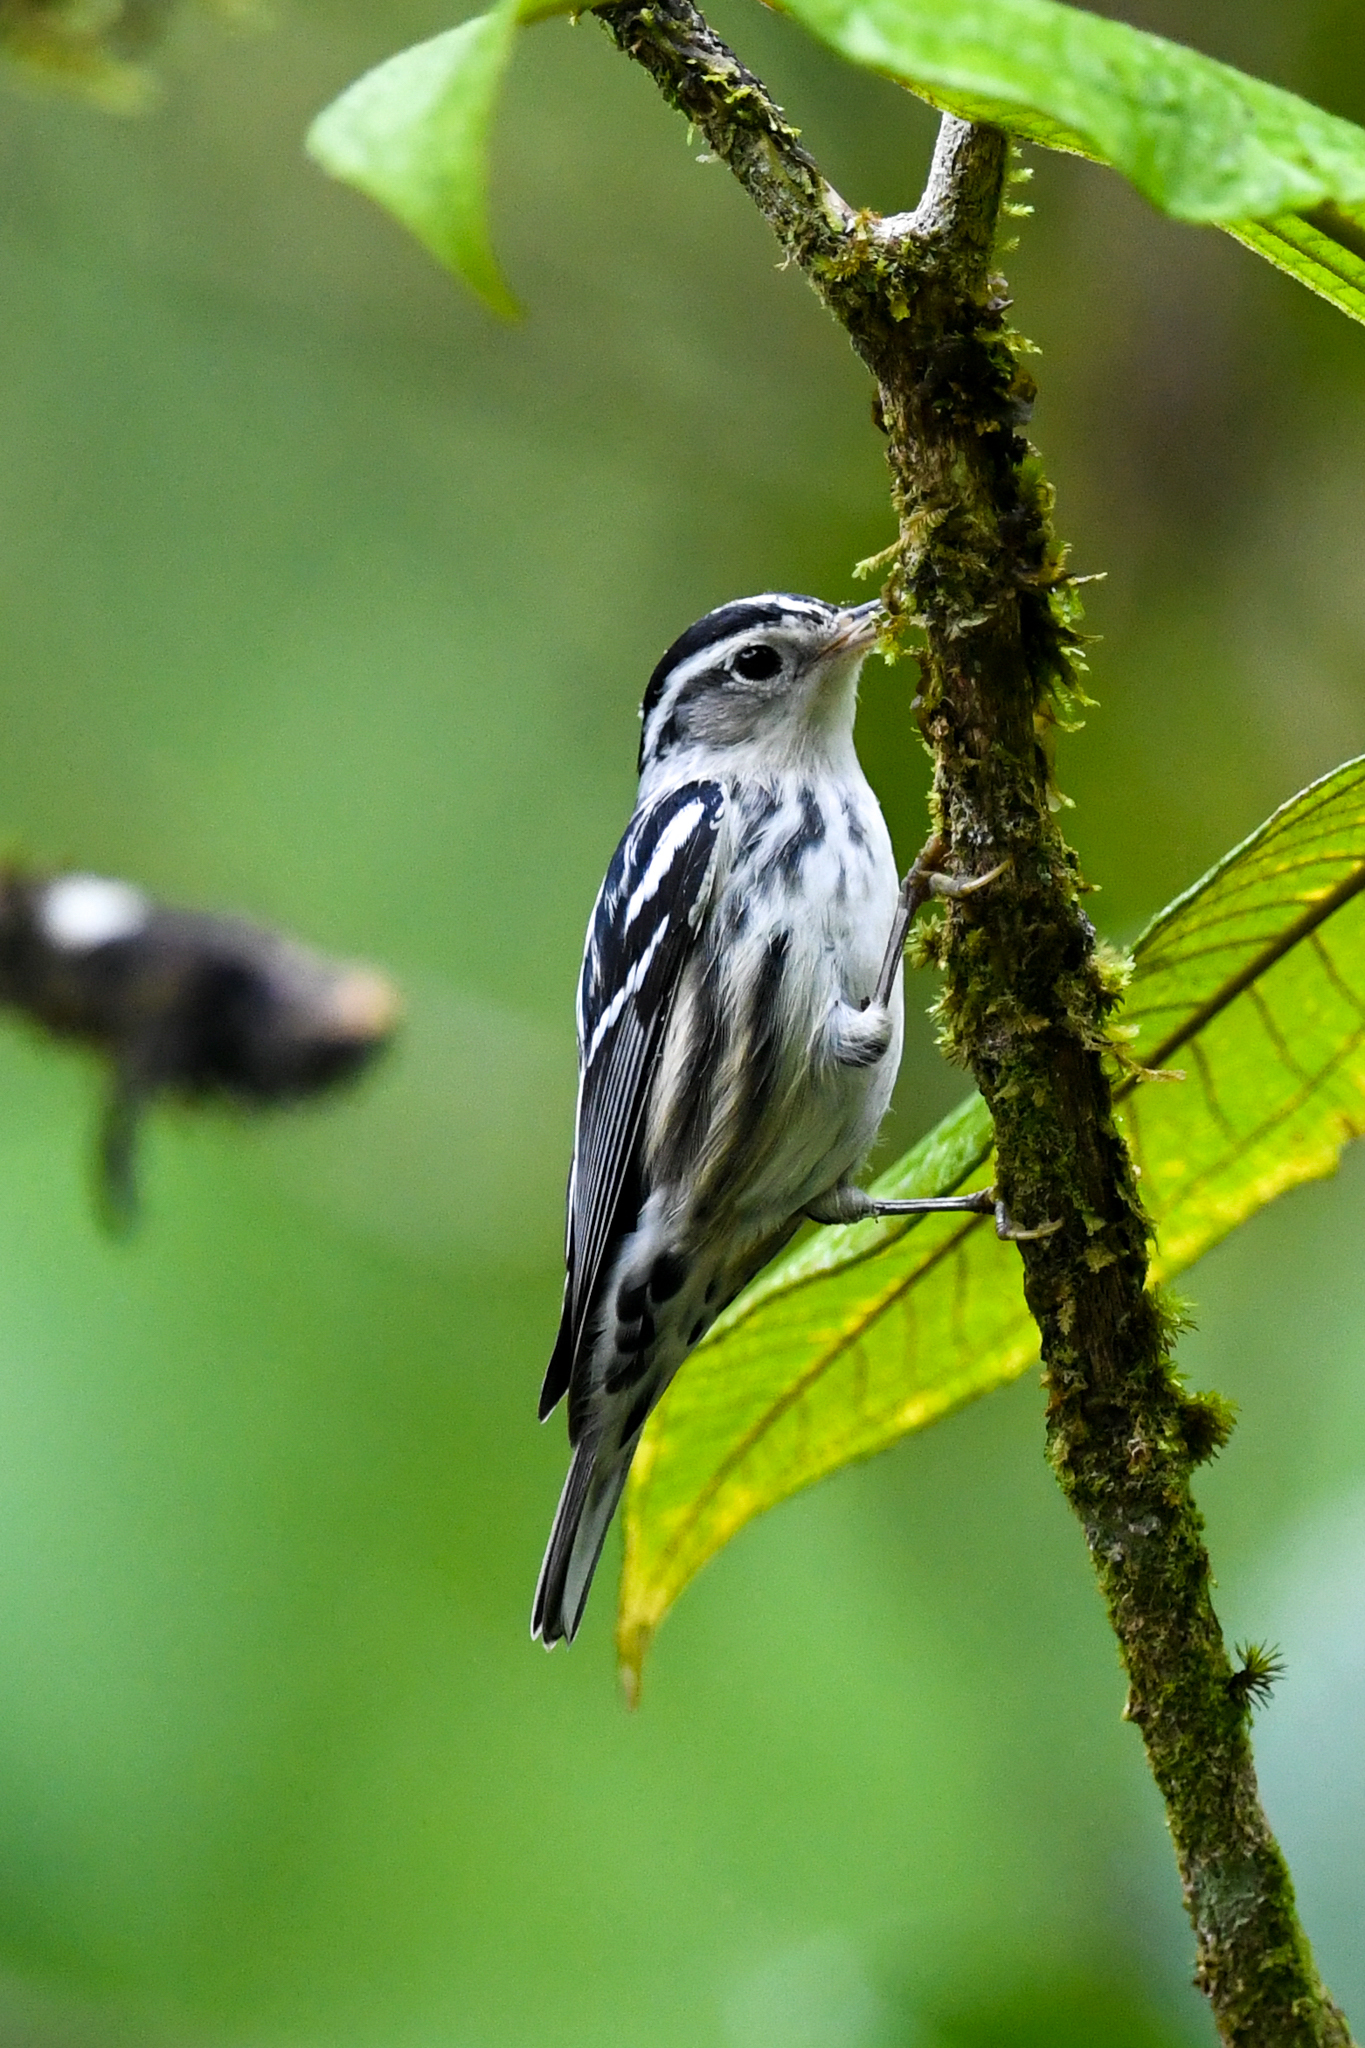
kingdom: Animalia
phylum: Chordata
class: Aves
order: Passeriformes
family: Parulidae
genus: Mniotilta
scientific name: Mniotilta varia
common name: Black-and-white warbler
